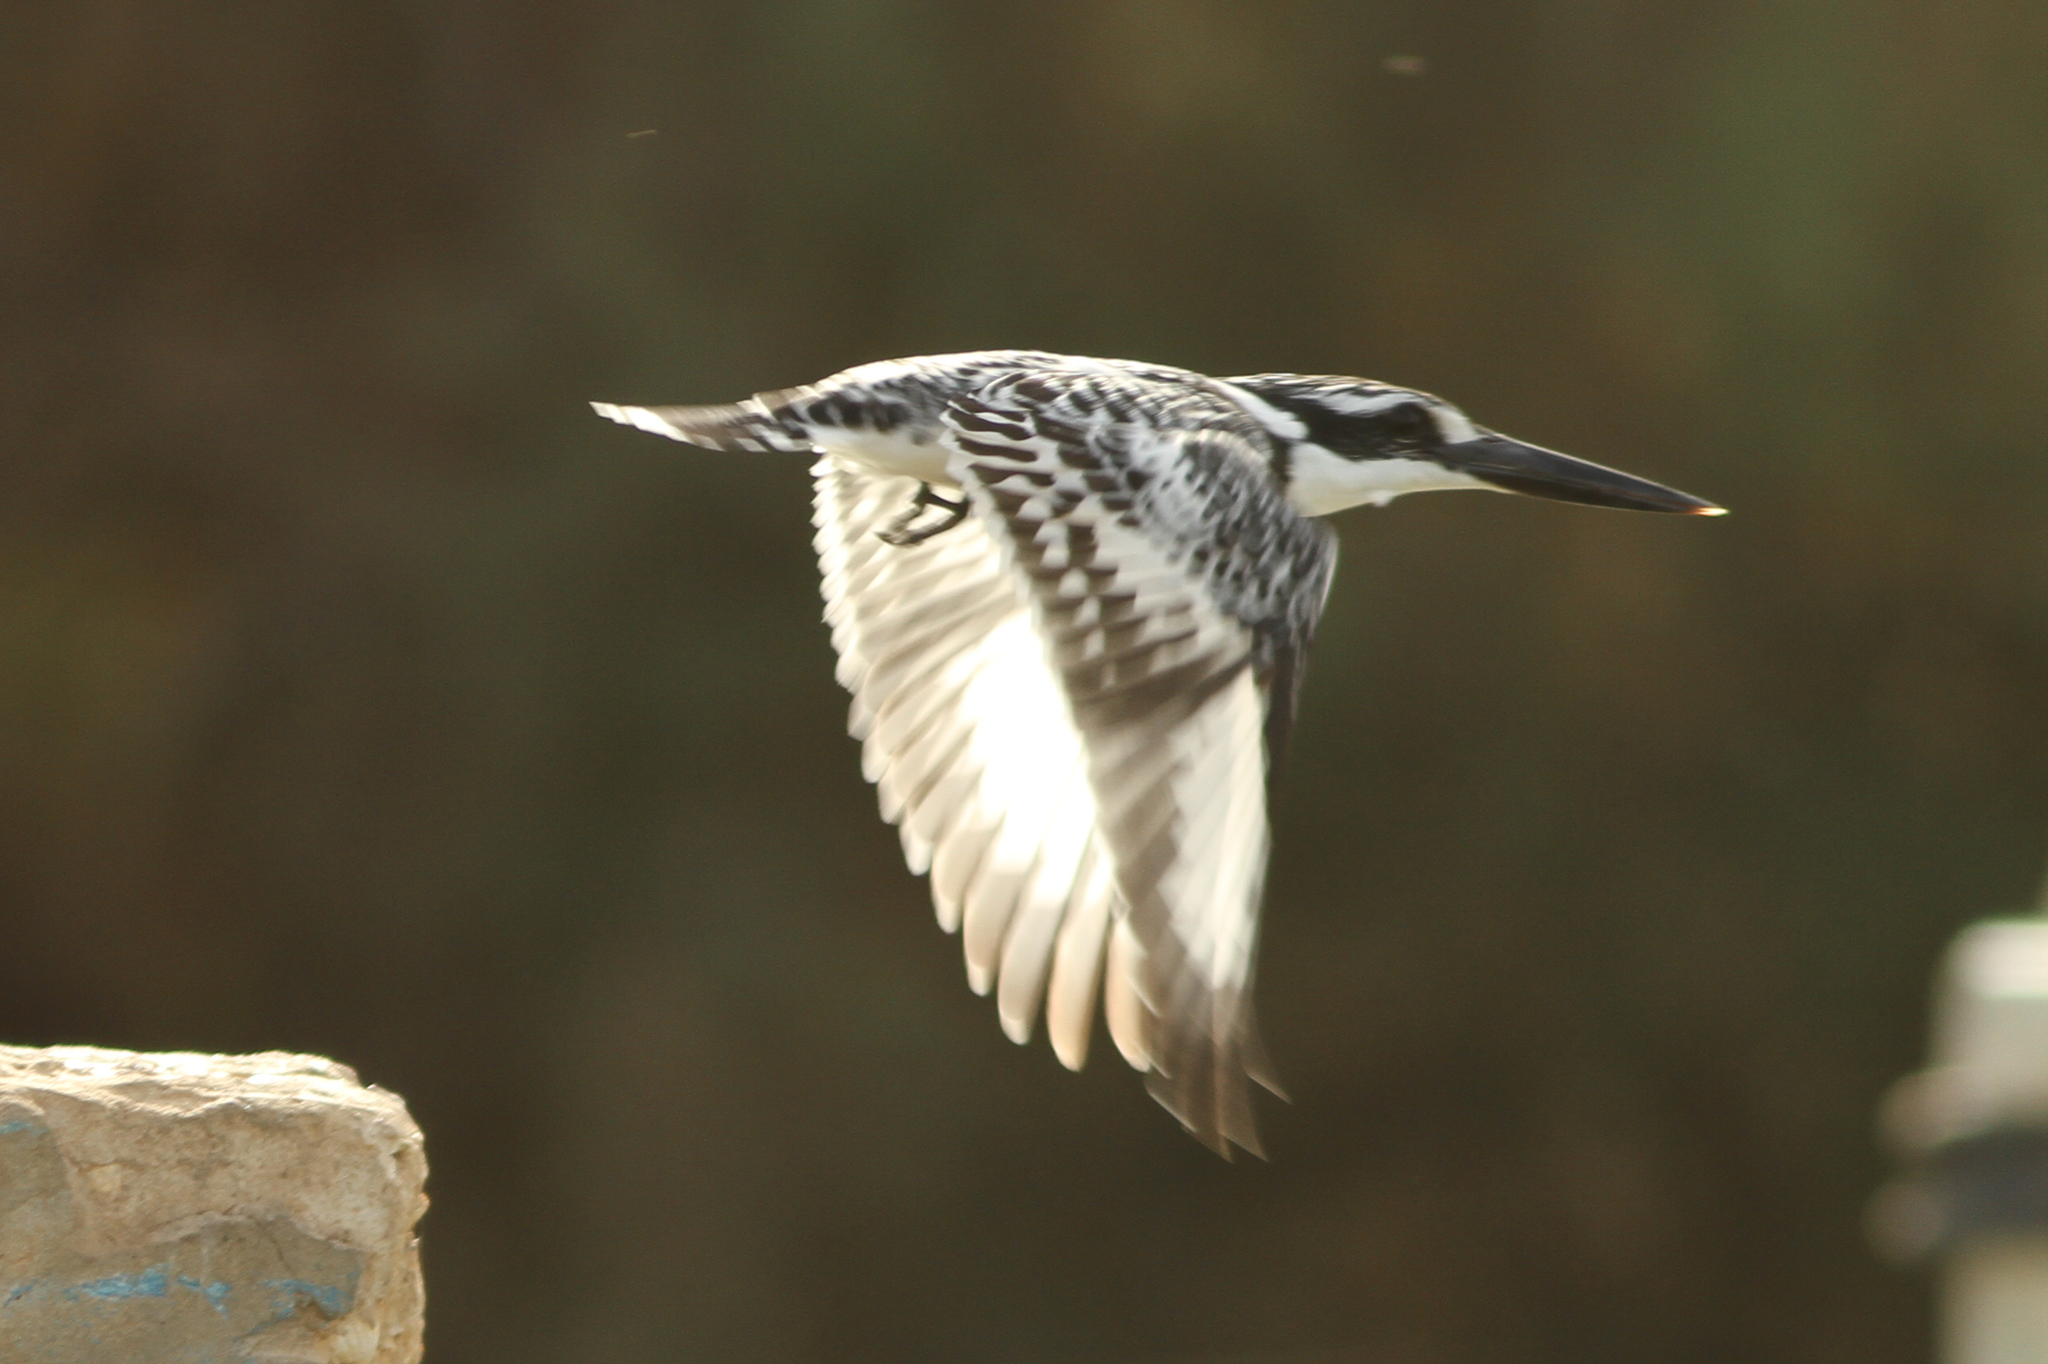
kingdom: Animalia
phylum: Chordata
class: Aves
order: Coraciiformes
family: Alcedinidae
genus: Ceryle
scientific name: Ceryle rudis
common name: Pied kingfisher
